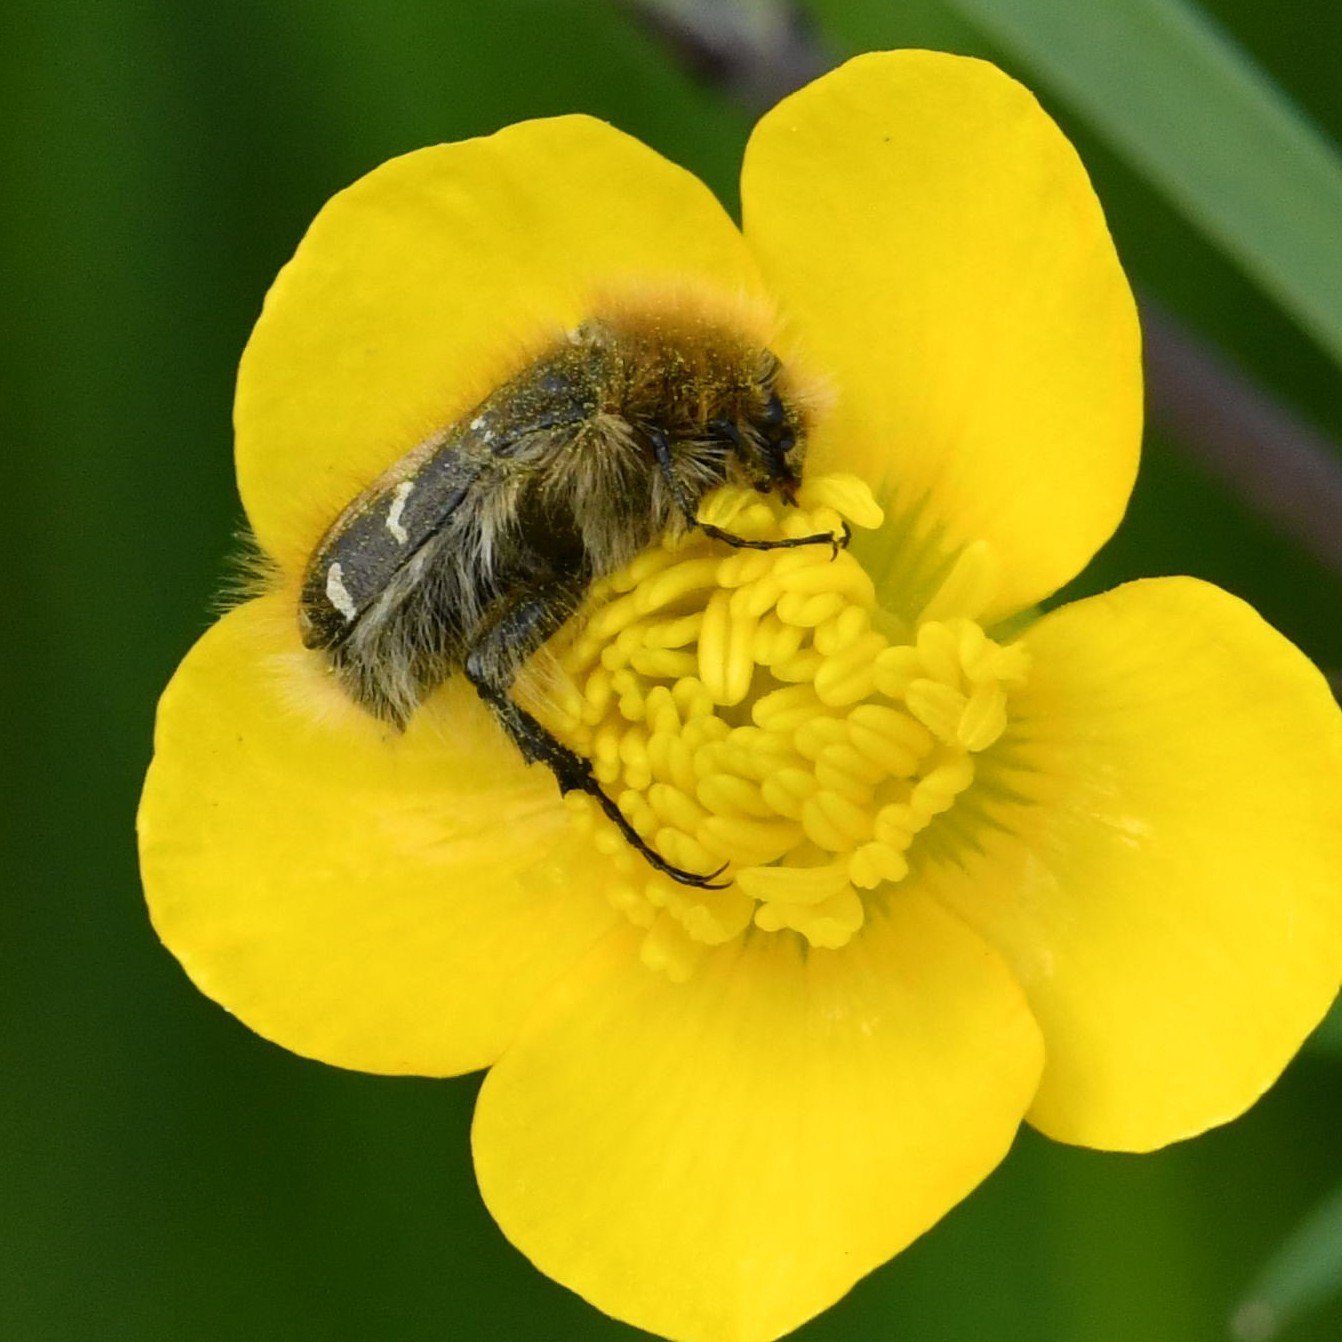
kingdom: Animalia
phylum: Arthropoda
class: Insecta
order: Coleoptera
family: Scarabaeidae
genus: Tropinota
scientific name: Tropinota hirta
